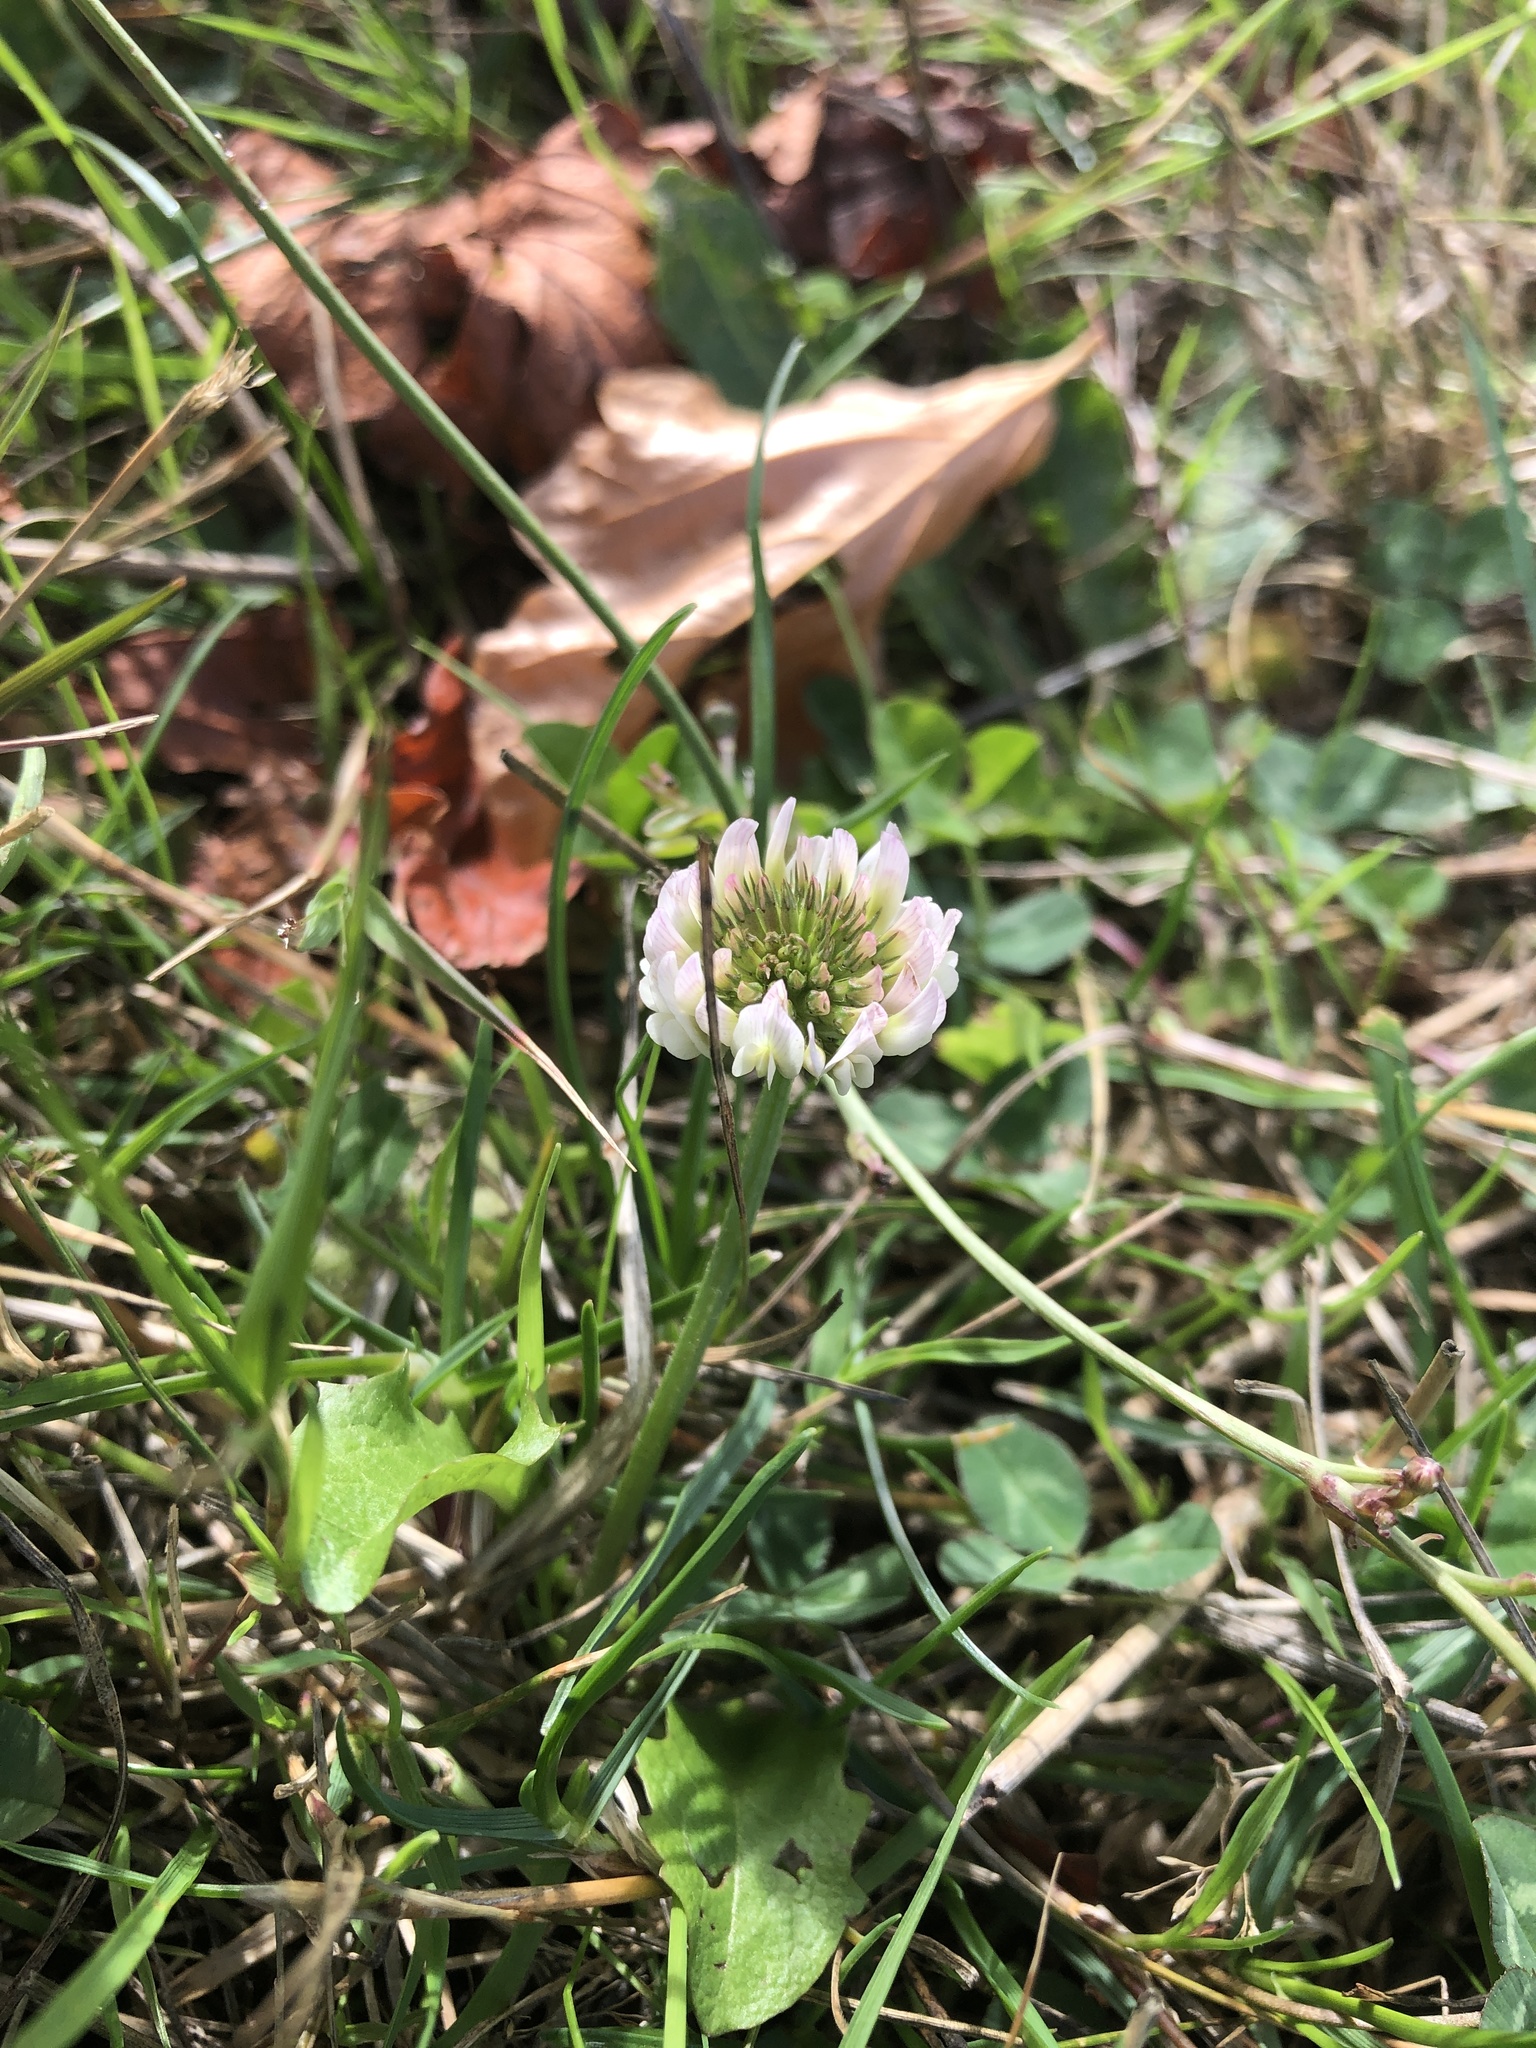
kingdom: Plantae
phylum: Tracheophyta
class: Magnoliopsida
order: Fabales
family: Fabaceae
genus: Trifolium
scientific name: Trifolium repens
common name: White clover
